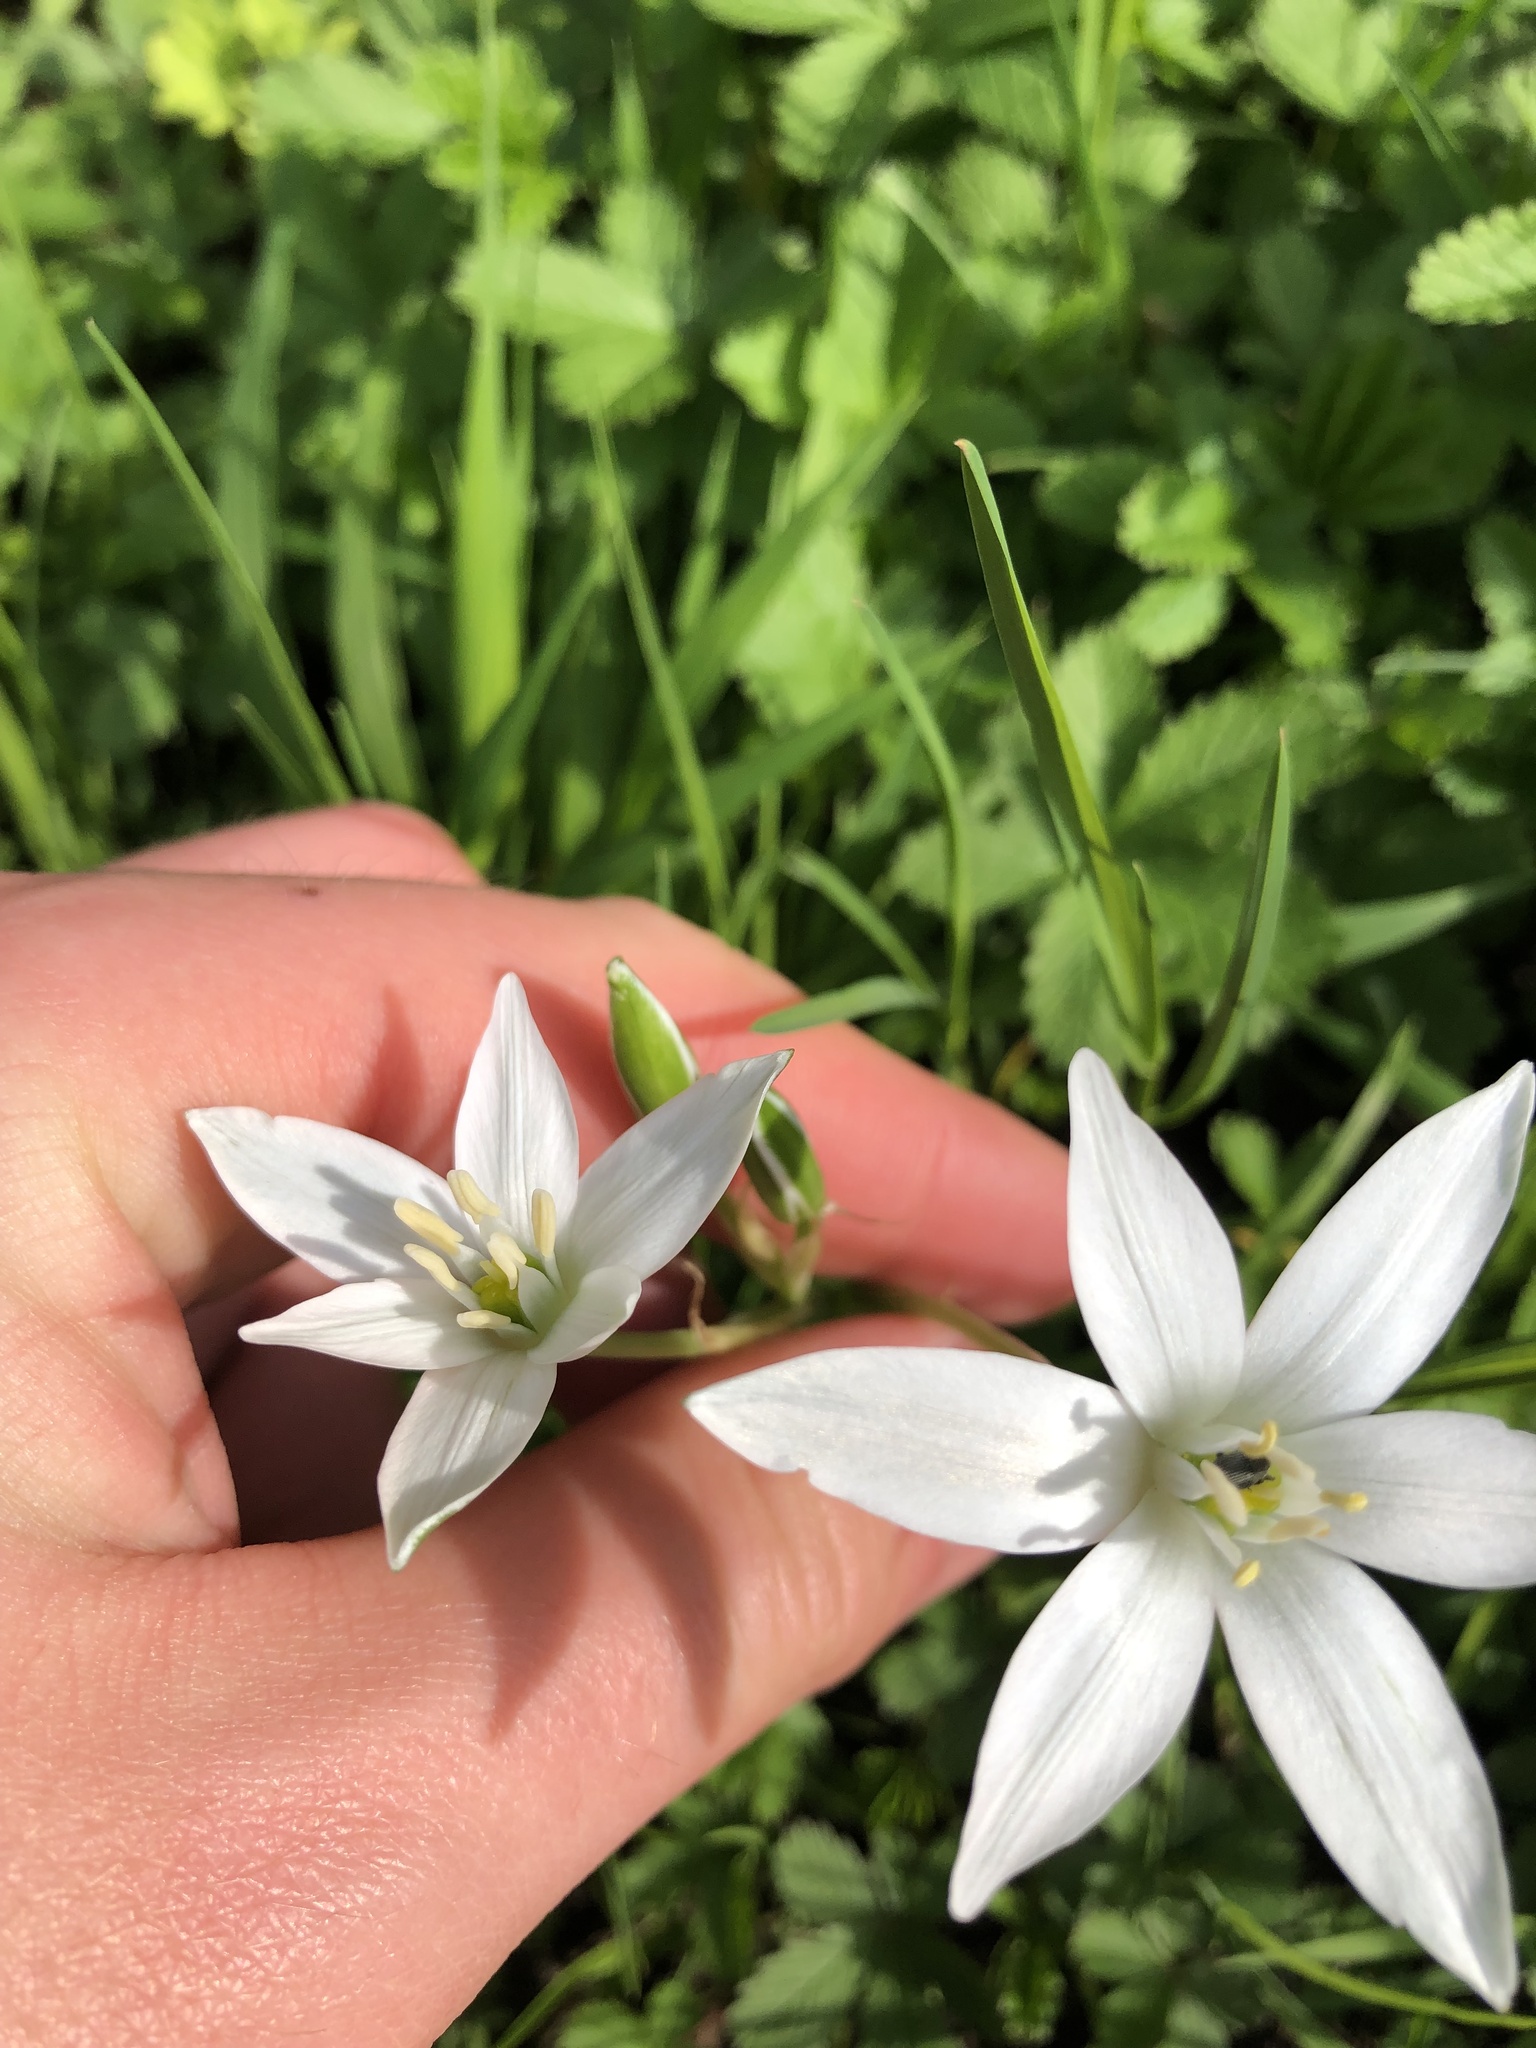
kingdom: Plantae
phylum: Tracheophyta
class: Liliopsida
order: Asparagales
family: Asparagaceae
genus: Ornithogalum
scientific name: Ornithogalum umbellatum
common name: Garden star-of-bethlehem
